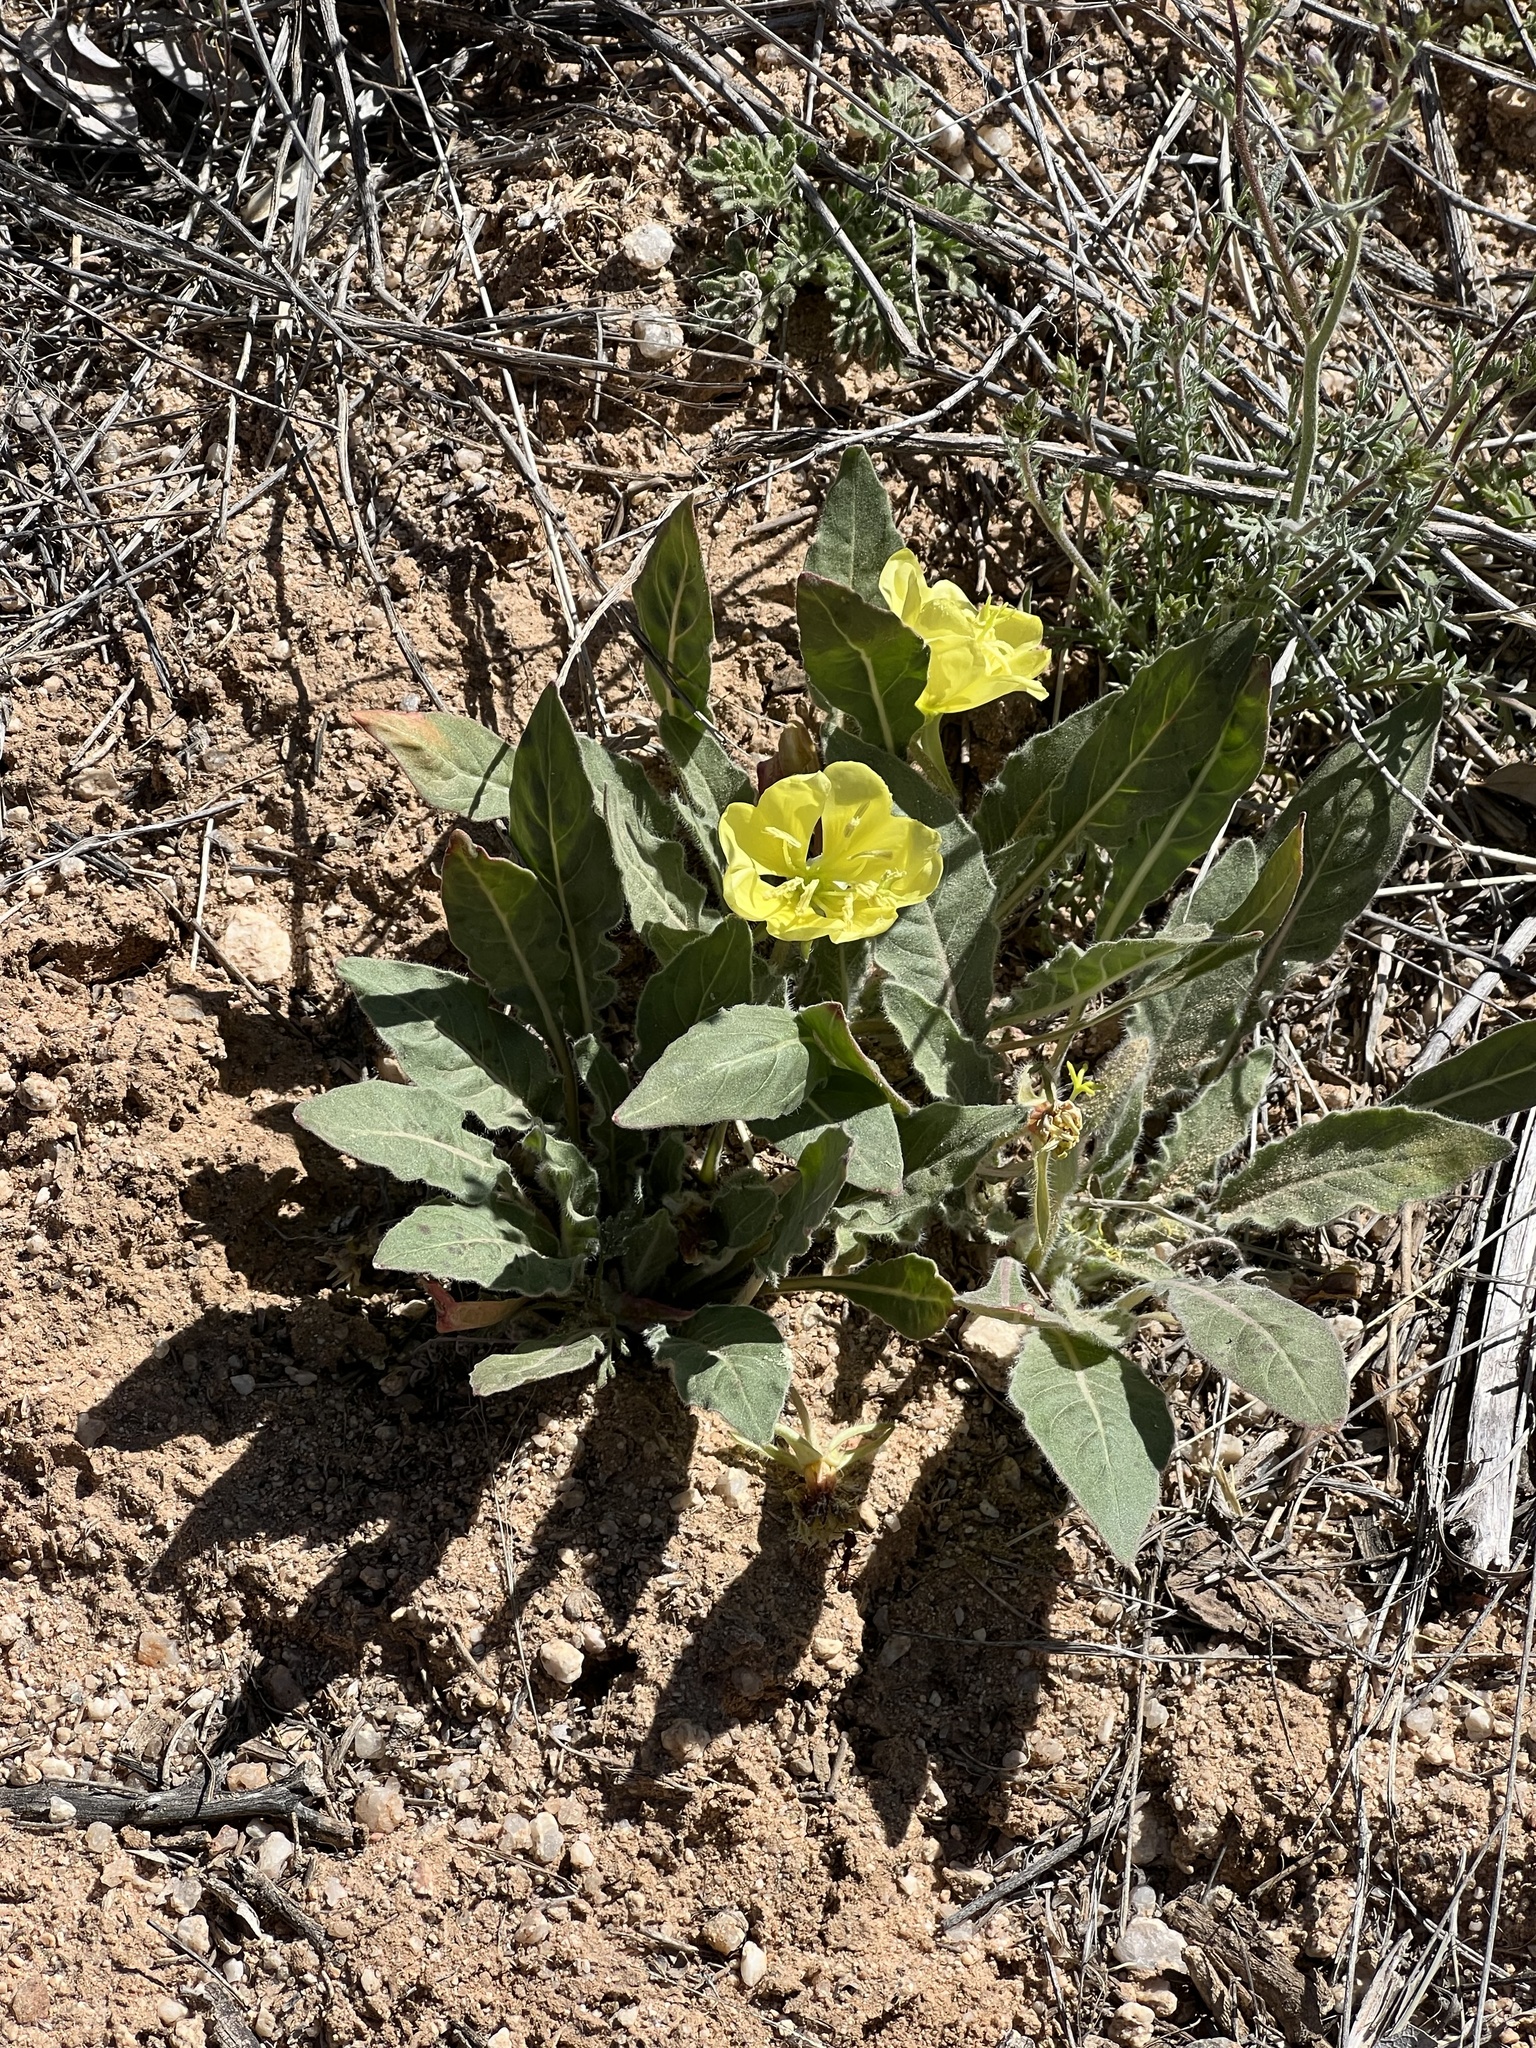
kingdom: Plantae
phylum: Tracheophyta
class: Magnoliopsida
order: Myrtales
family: Onagraceae
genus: Oenothera
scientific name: Oenothera primiveris
